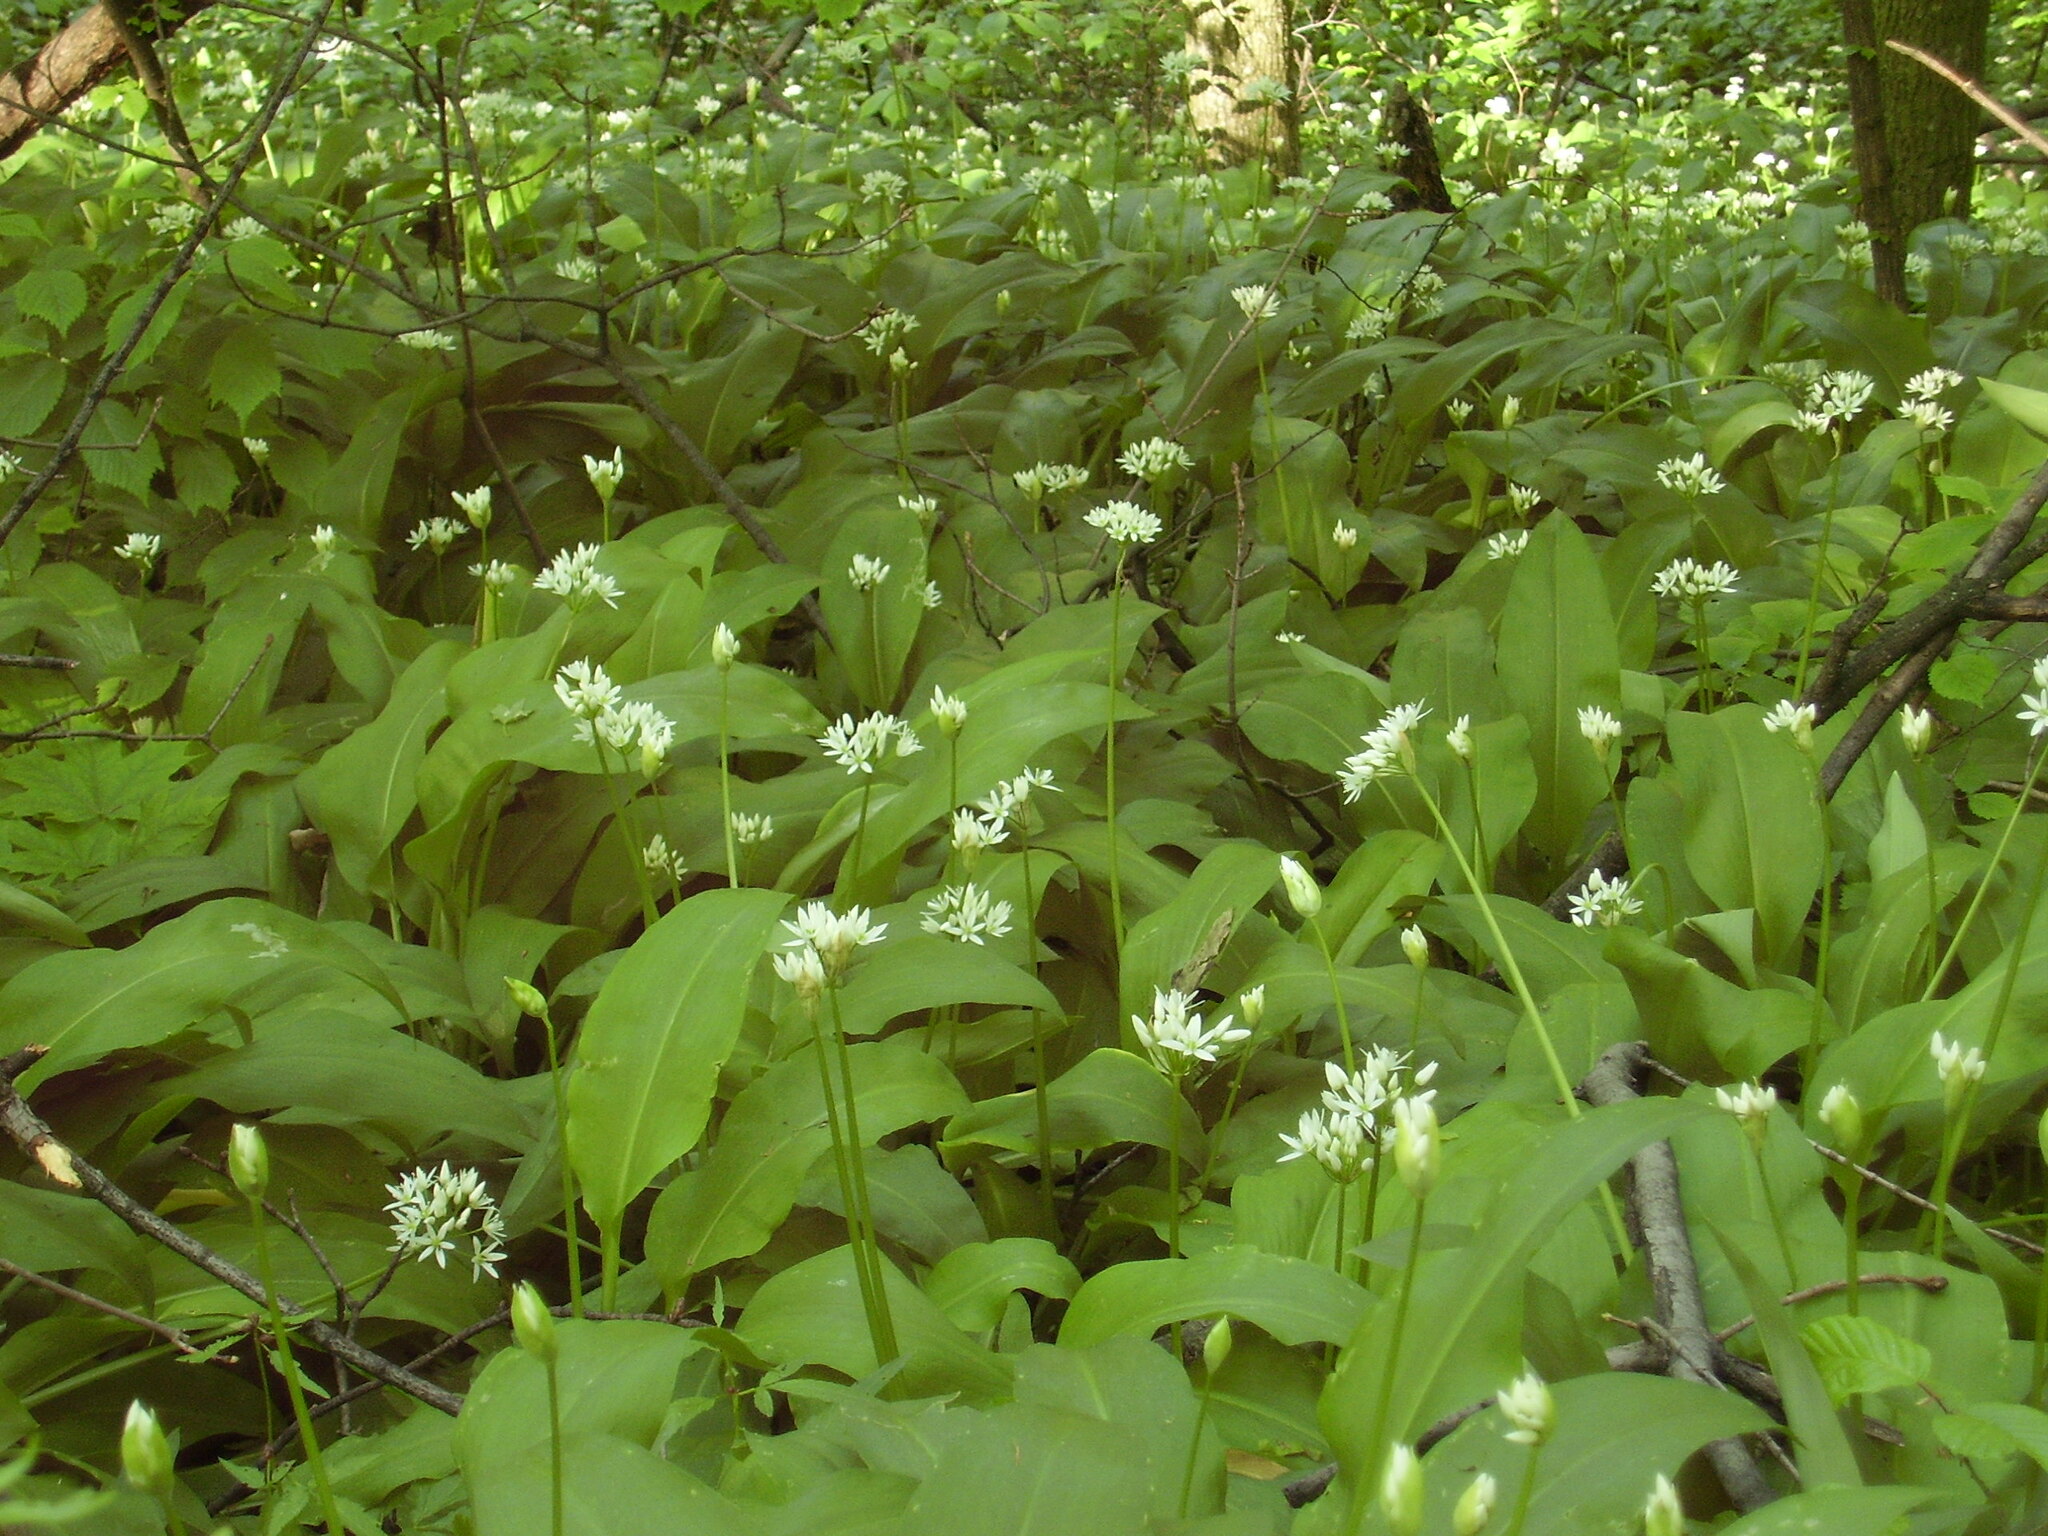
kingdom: Plantae
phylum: Tracheophyta
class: Liliopsida
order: Asparagales
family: Amaryllidaceae
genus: Allium
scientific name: Allium ursinum
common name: Ramsons
